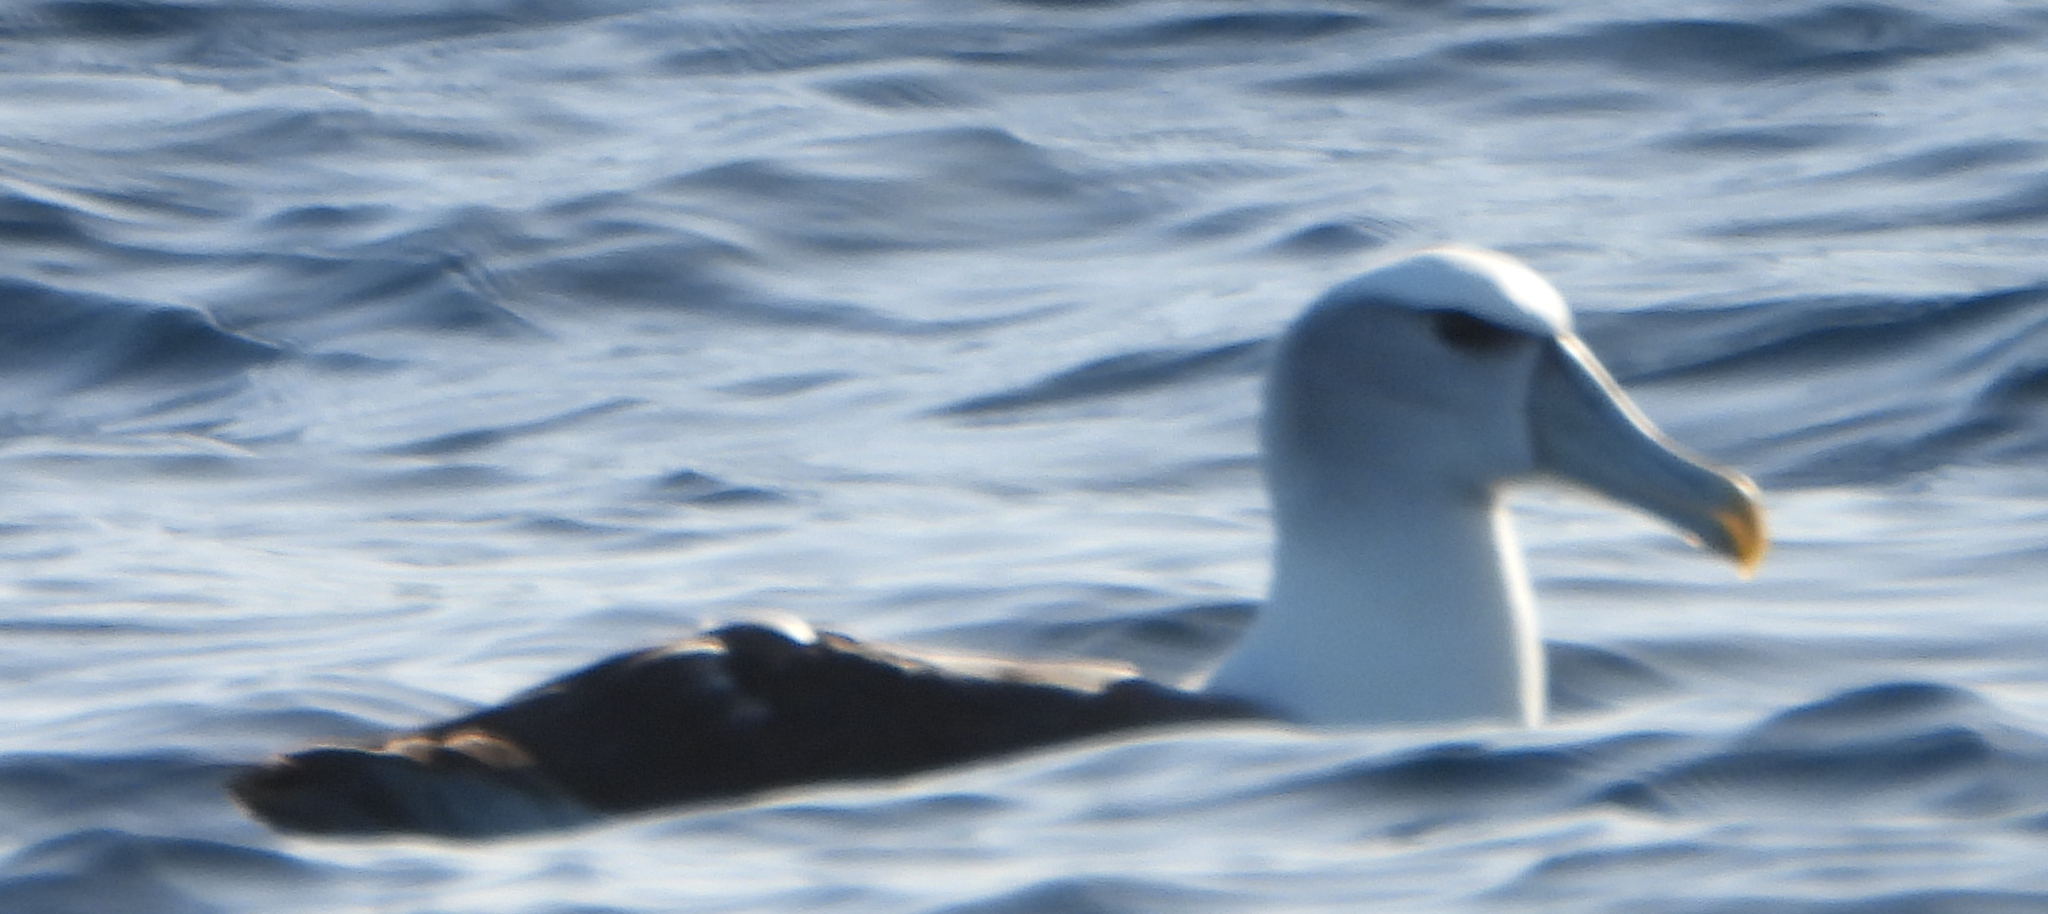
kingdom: Animalia
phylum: Chordata
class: Aves
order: Procellariiformes
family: Diomedeidae
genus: Thalassarche
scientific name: Thalassarche cauta
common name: Shy albatross
